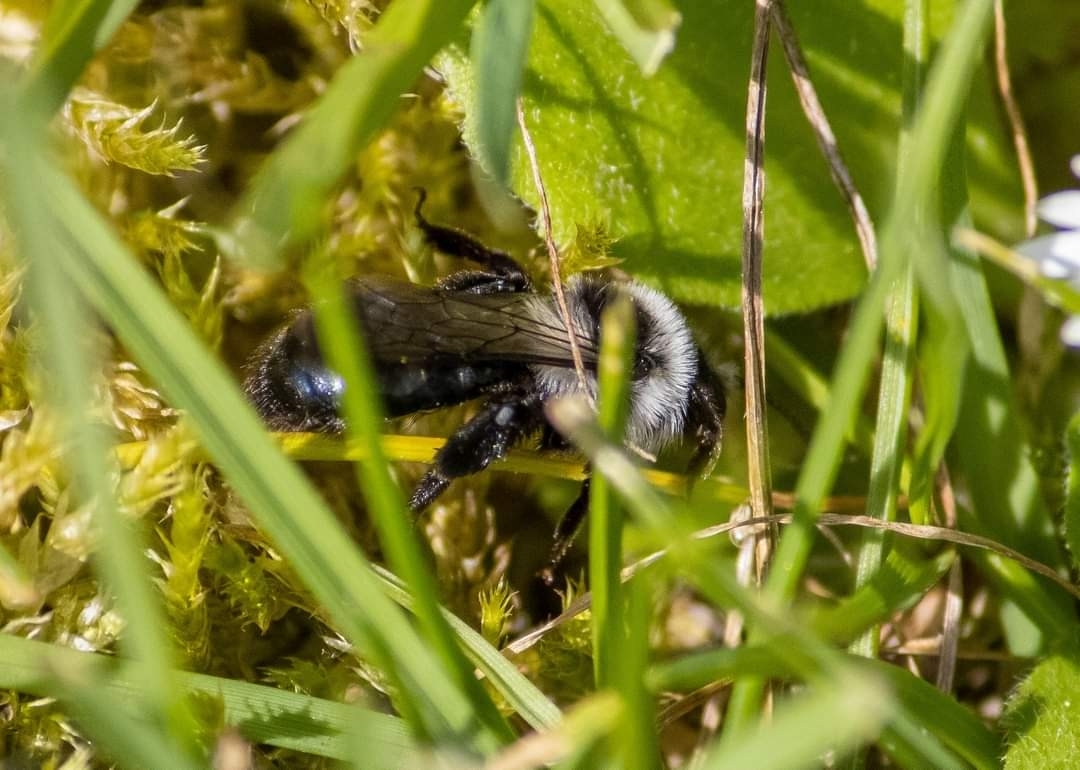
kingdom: Animalia
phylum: Arthropoda
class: Insecta
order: Hymenoptera
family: Andrenidae
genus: Andrena
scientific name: Andrena cineraria
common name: Ashy mining bee
